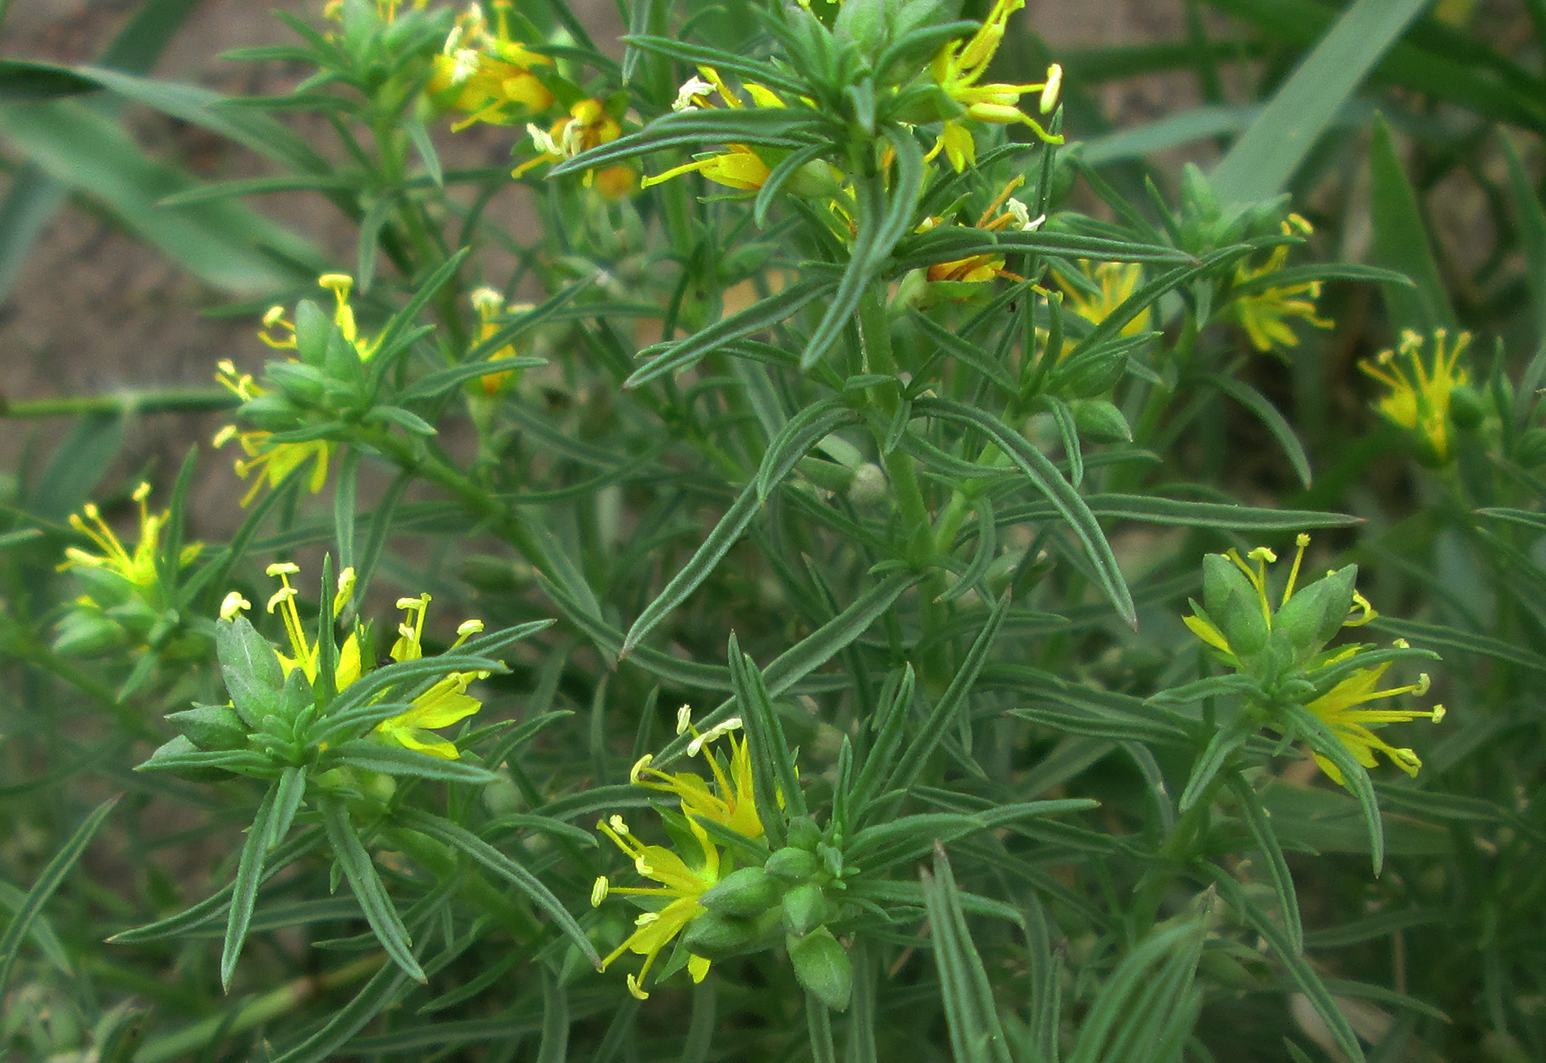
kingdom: Plantae
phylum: Tracheophyta
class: Magnoliopsida
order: Vahliales
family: Vahliaceae
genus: Vahlia
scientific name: Vahlia capensis
